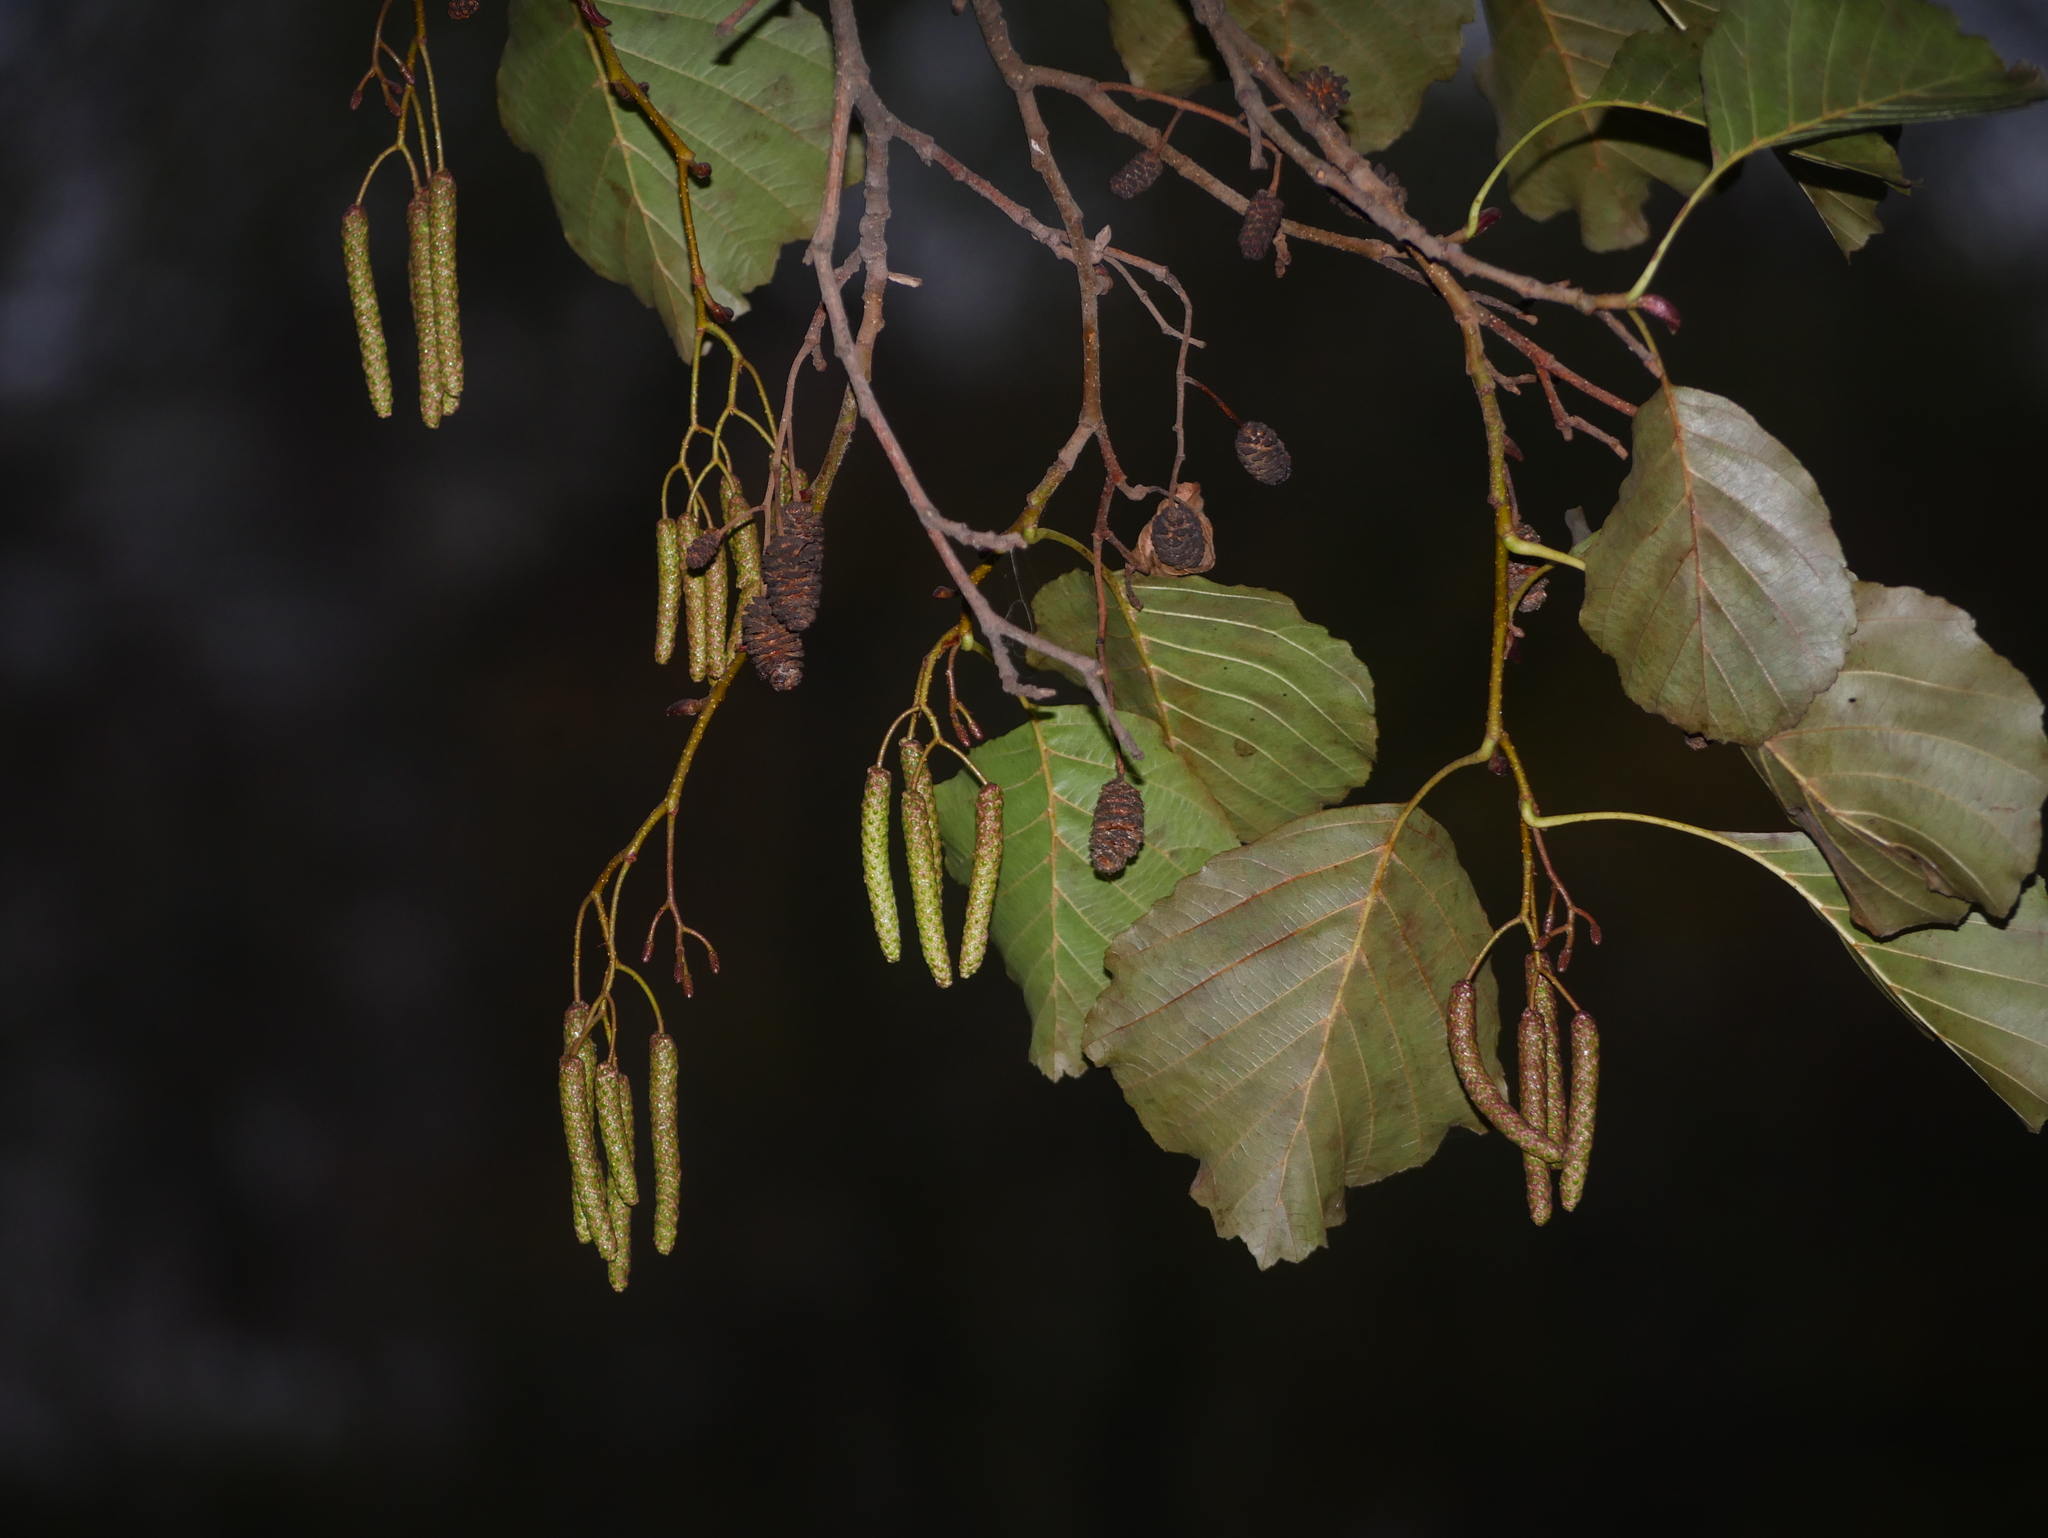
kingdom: Plantae
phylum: Tracheophyta
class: Magnoliopsida
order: Fagales
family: Betulaceae
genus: Alnus
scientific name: Alnus glutinosa
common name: Black alder
